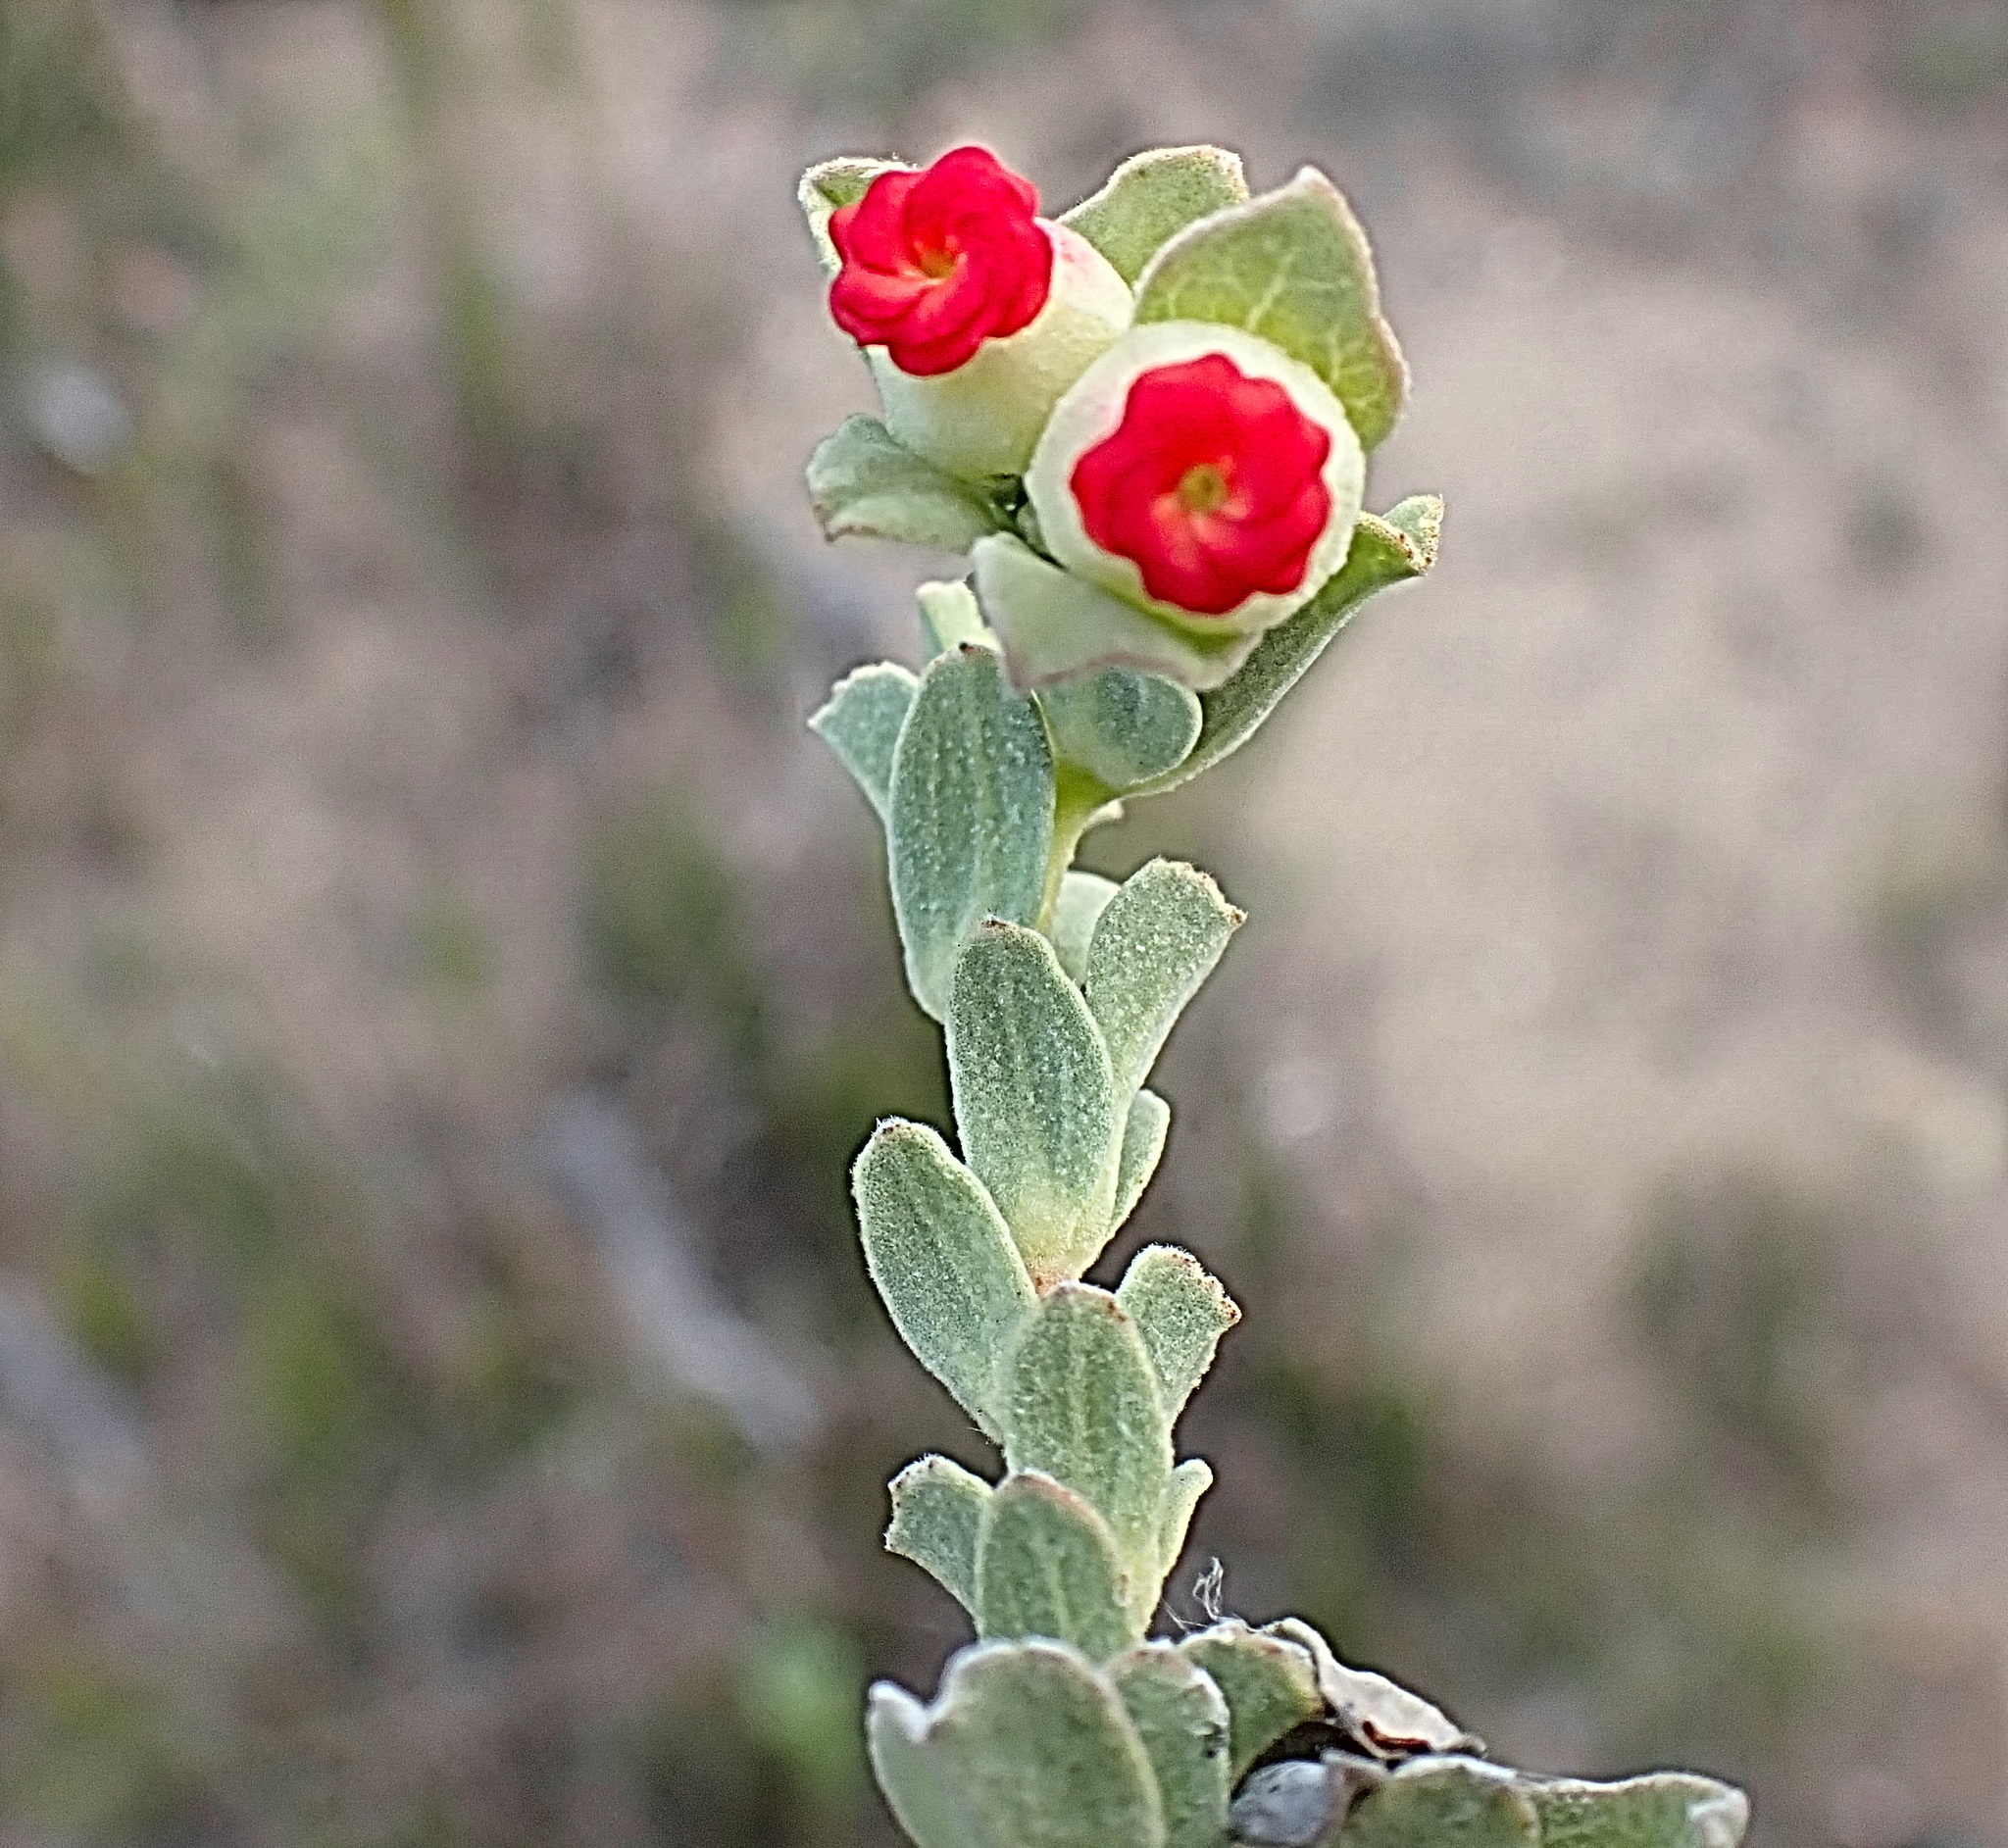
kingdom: Plantae
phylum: Tracheophyta
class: Magnoliopsida
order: Malvales
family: Malvaceae
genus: Hermannia
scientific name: Hermannia trifoliata
